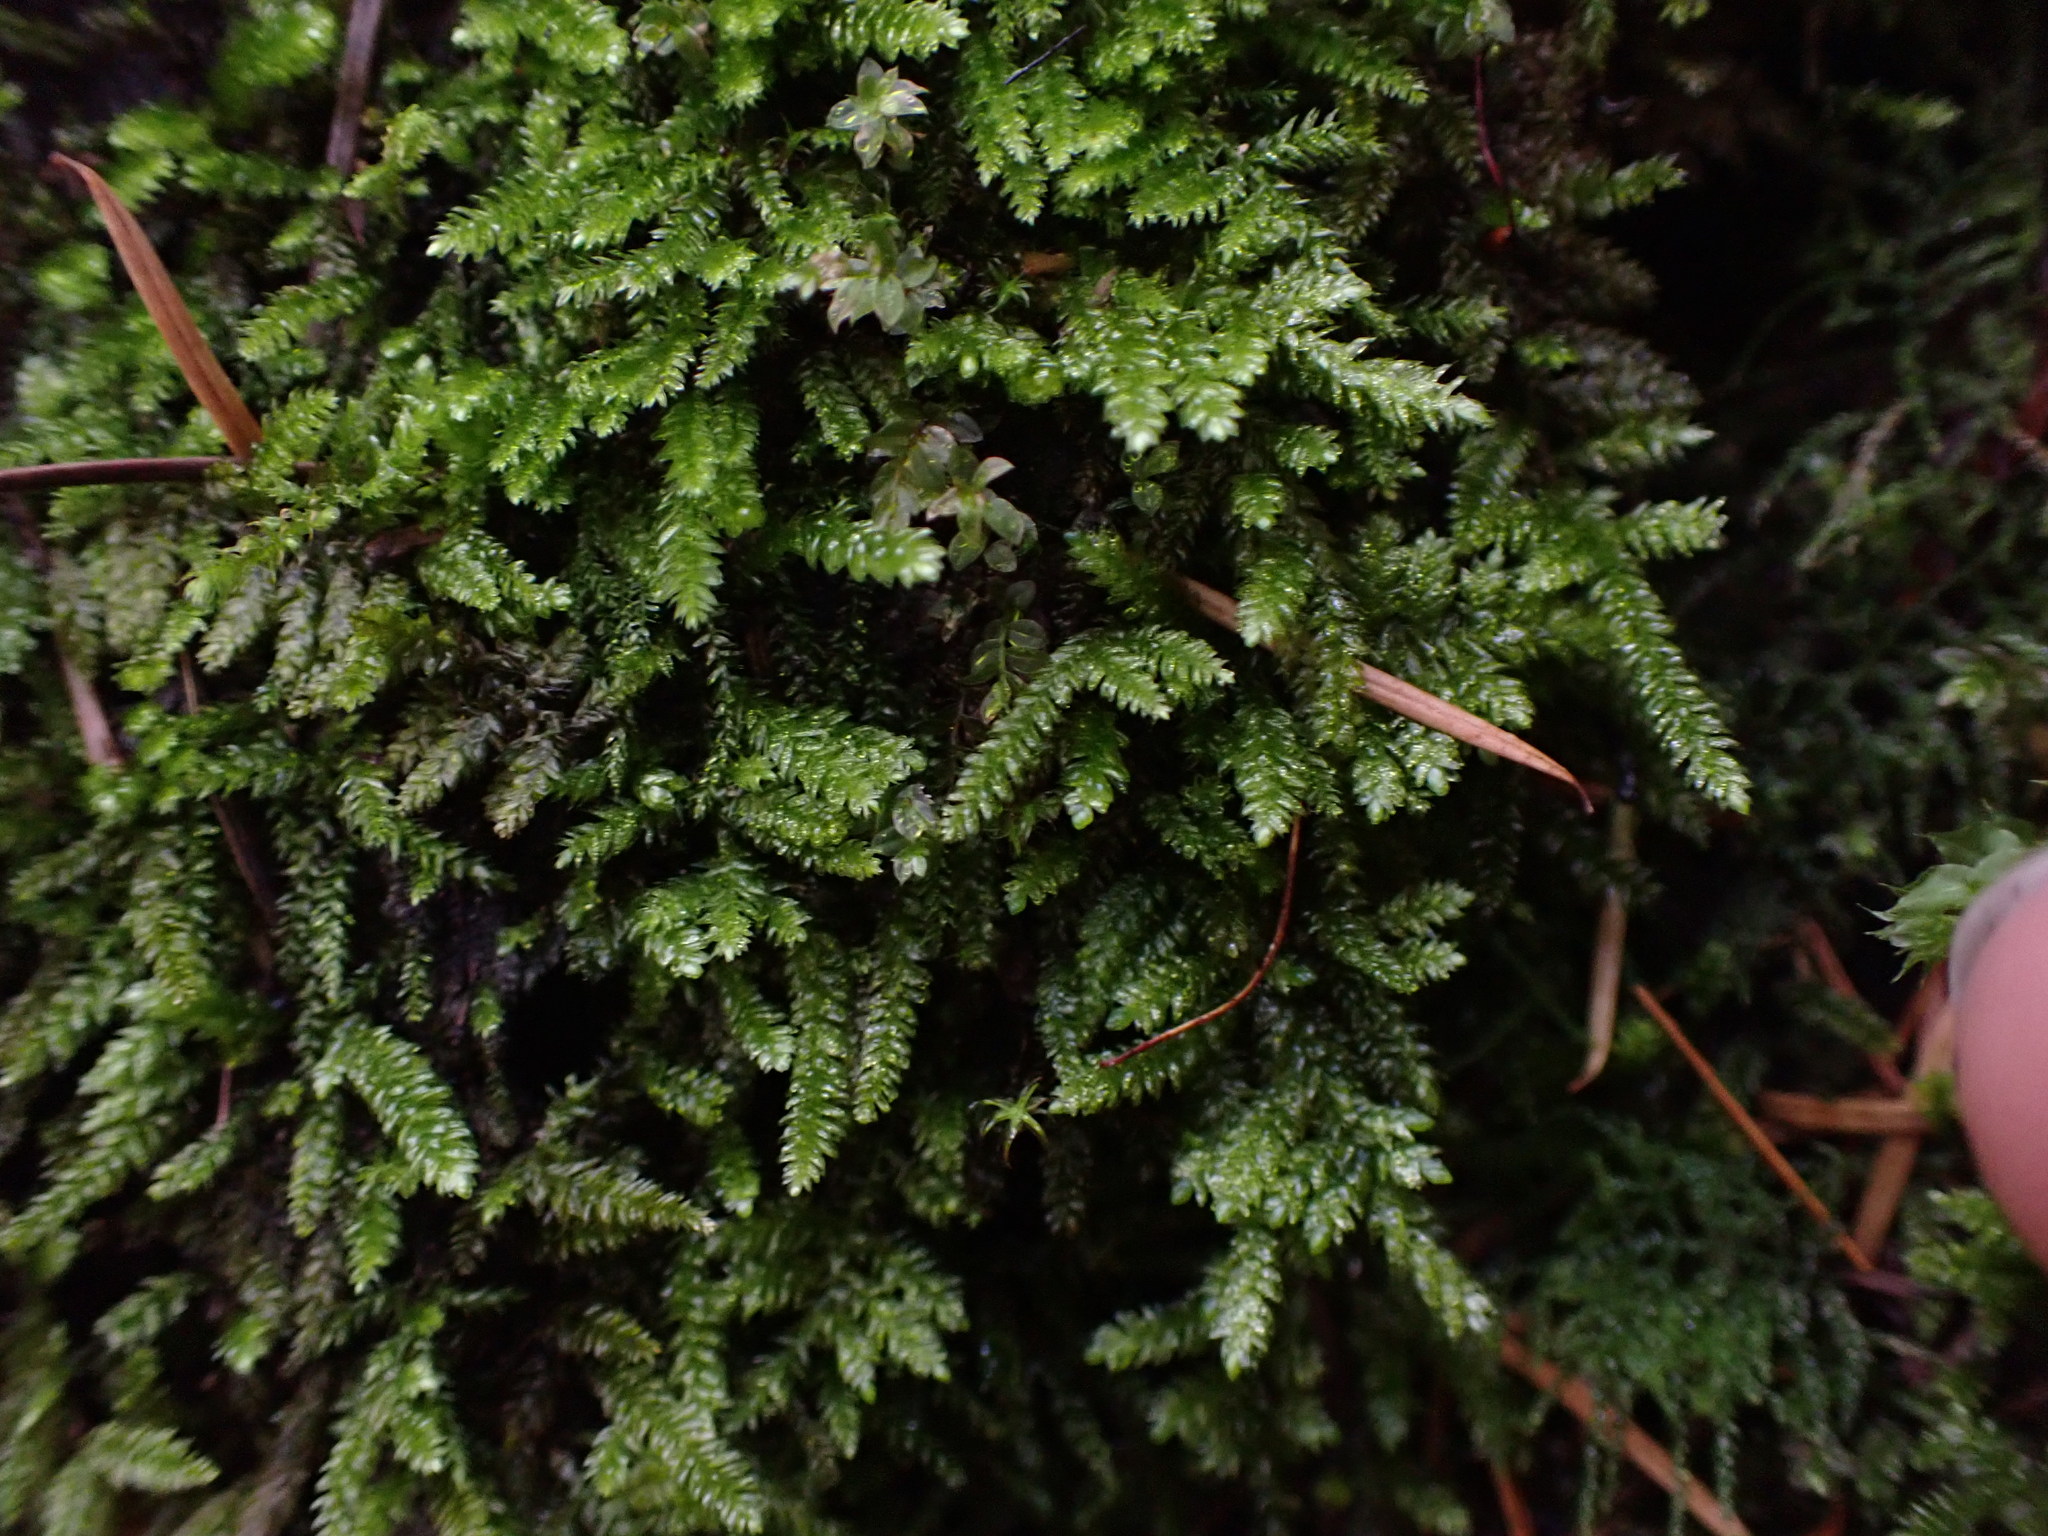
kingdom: Plantae
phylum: Bryophyta
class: Bryopsida
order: Hypnales
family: Plagiotheciaceae
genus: Plagiothecium
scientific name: Plagiothecium denticulatum
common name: Dented silk moss
